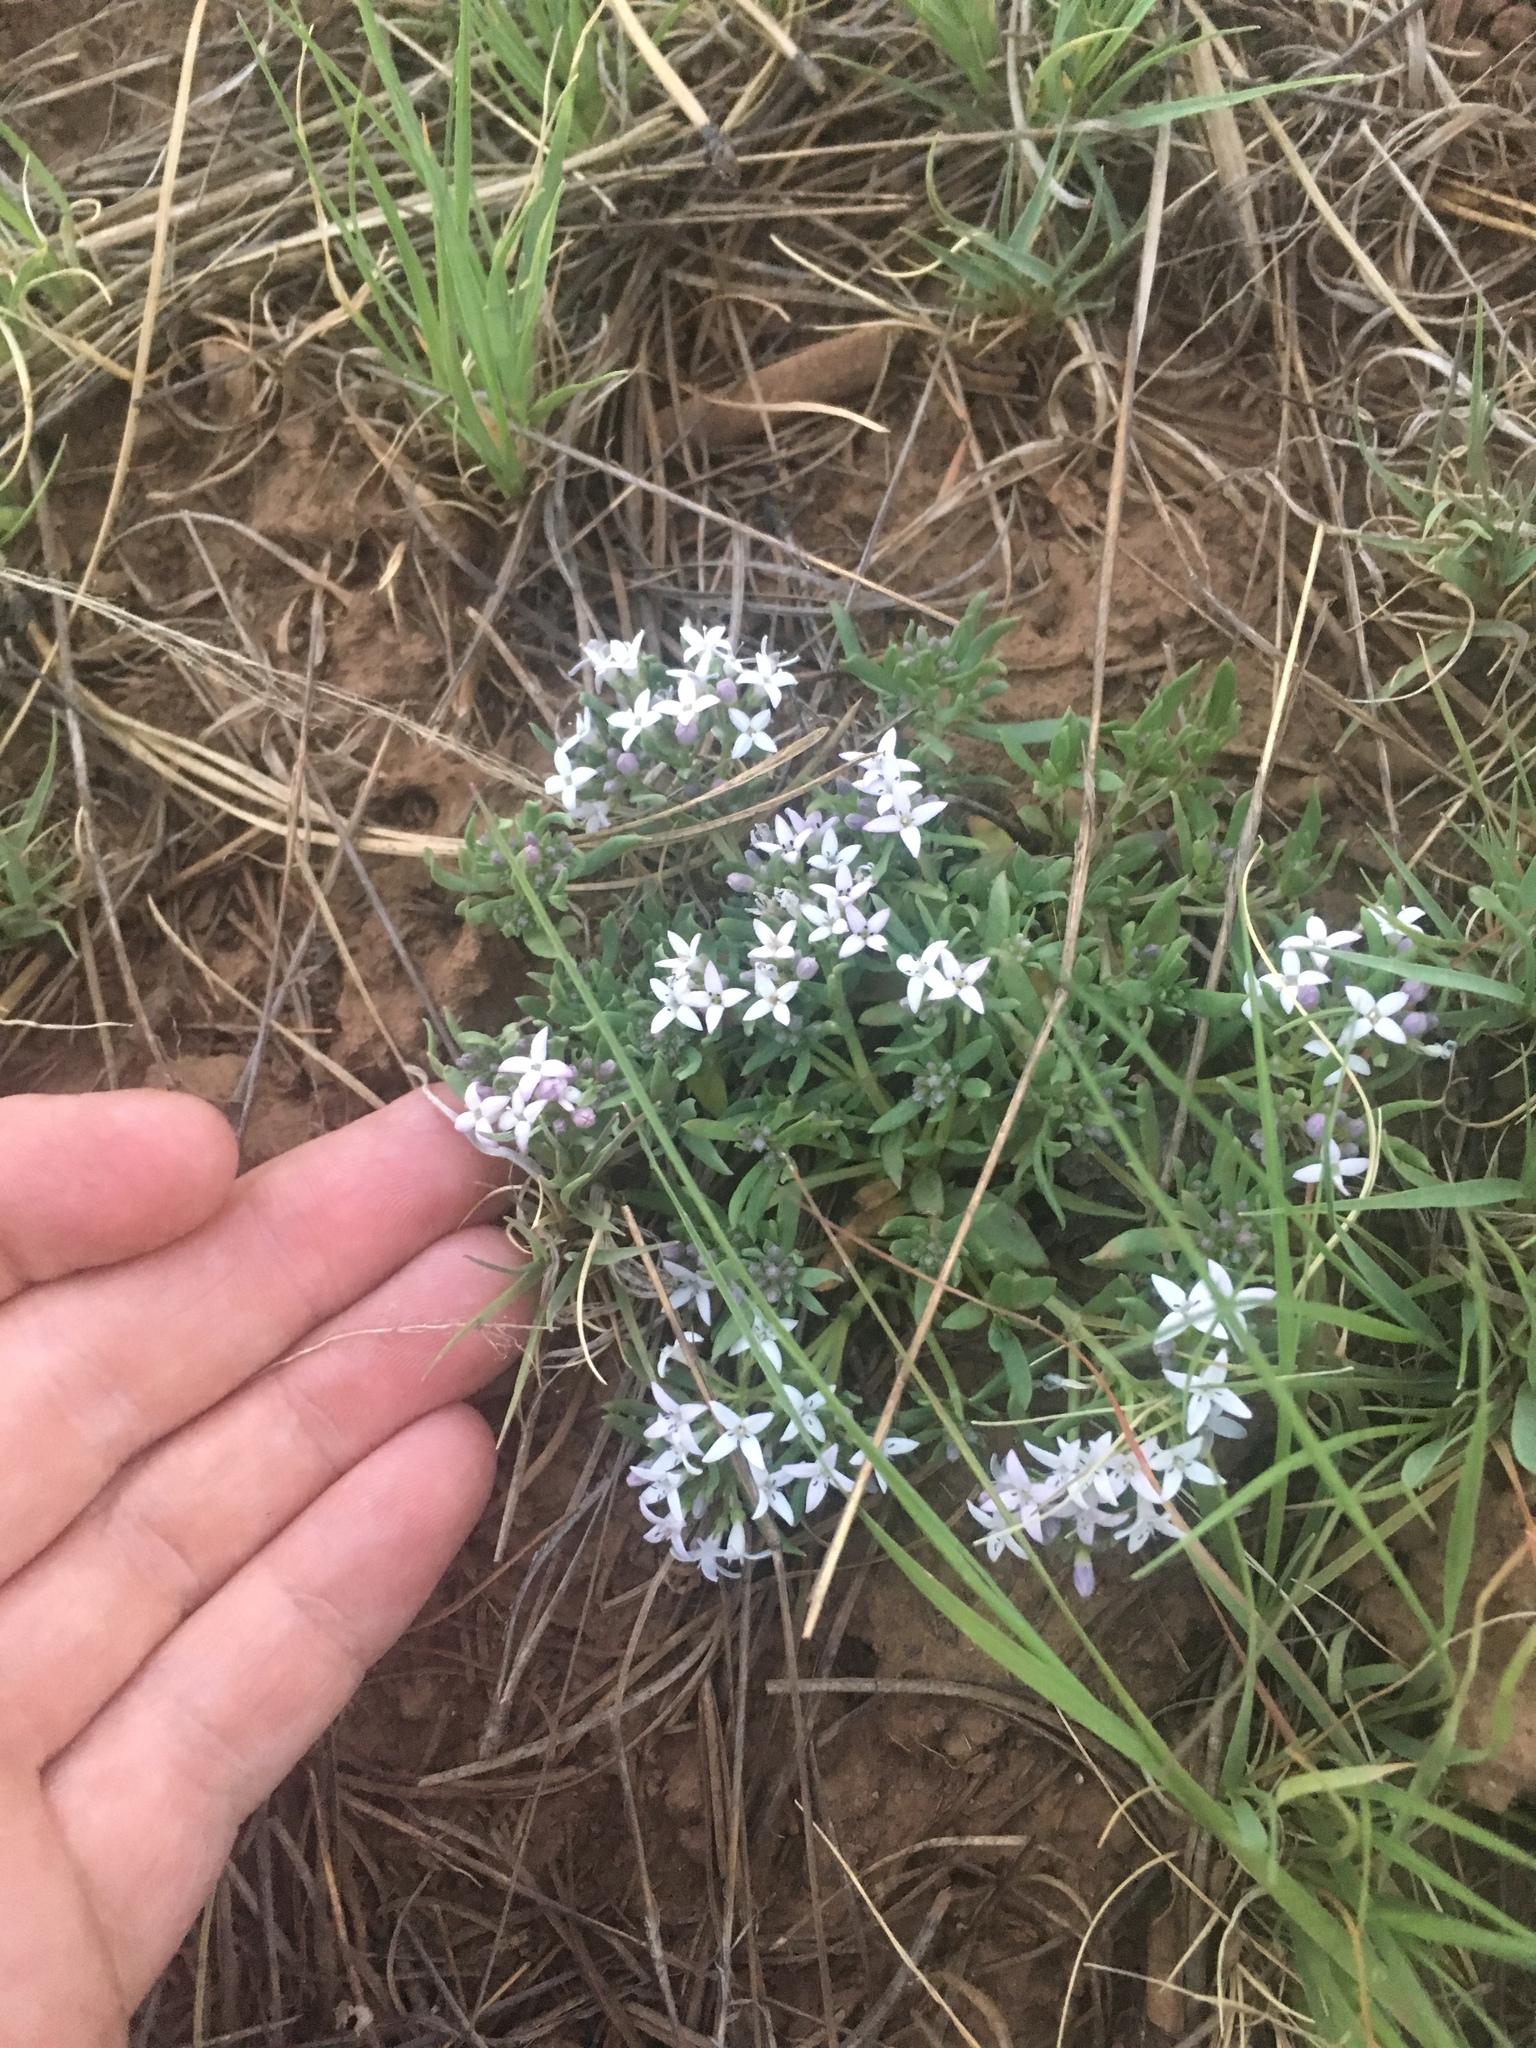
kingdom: Plantae
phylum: Tracheophyta
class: Magnoliopsida
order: Gentianales
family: Rubiaceae
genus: Houstonia
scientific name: Houstonia wrightii
